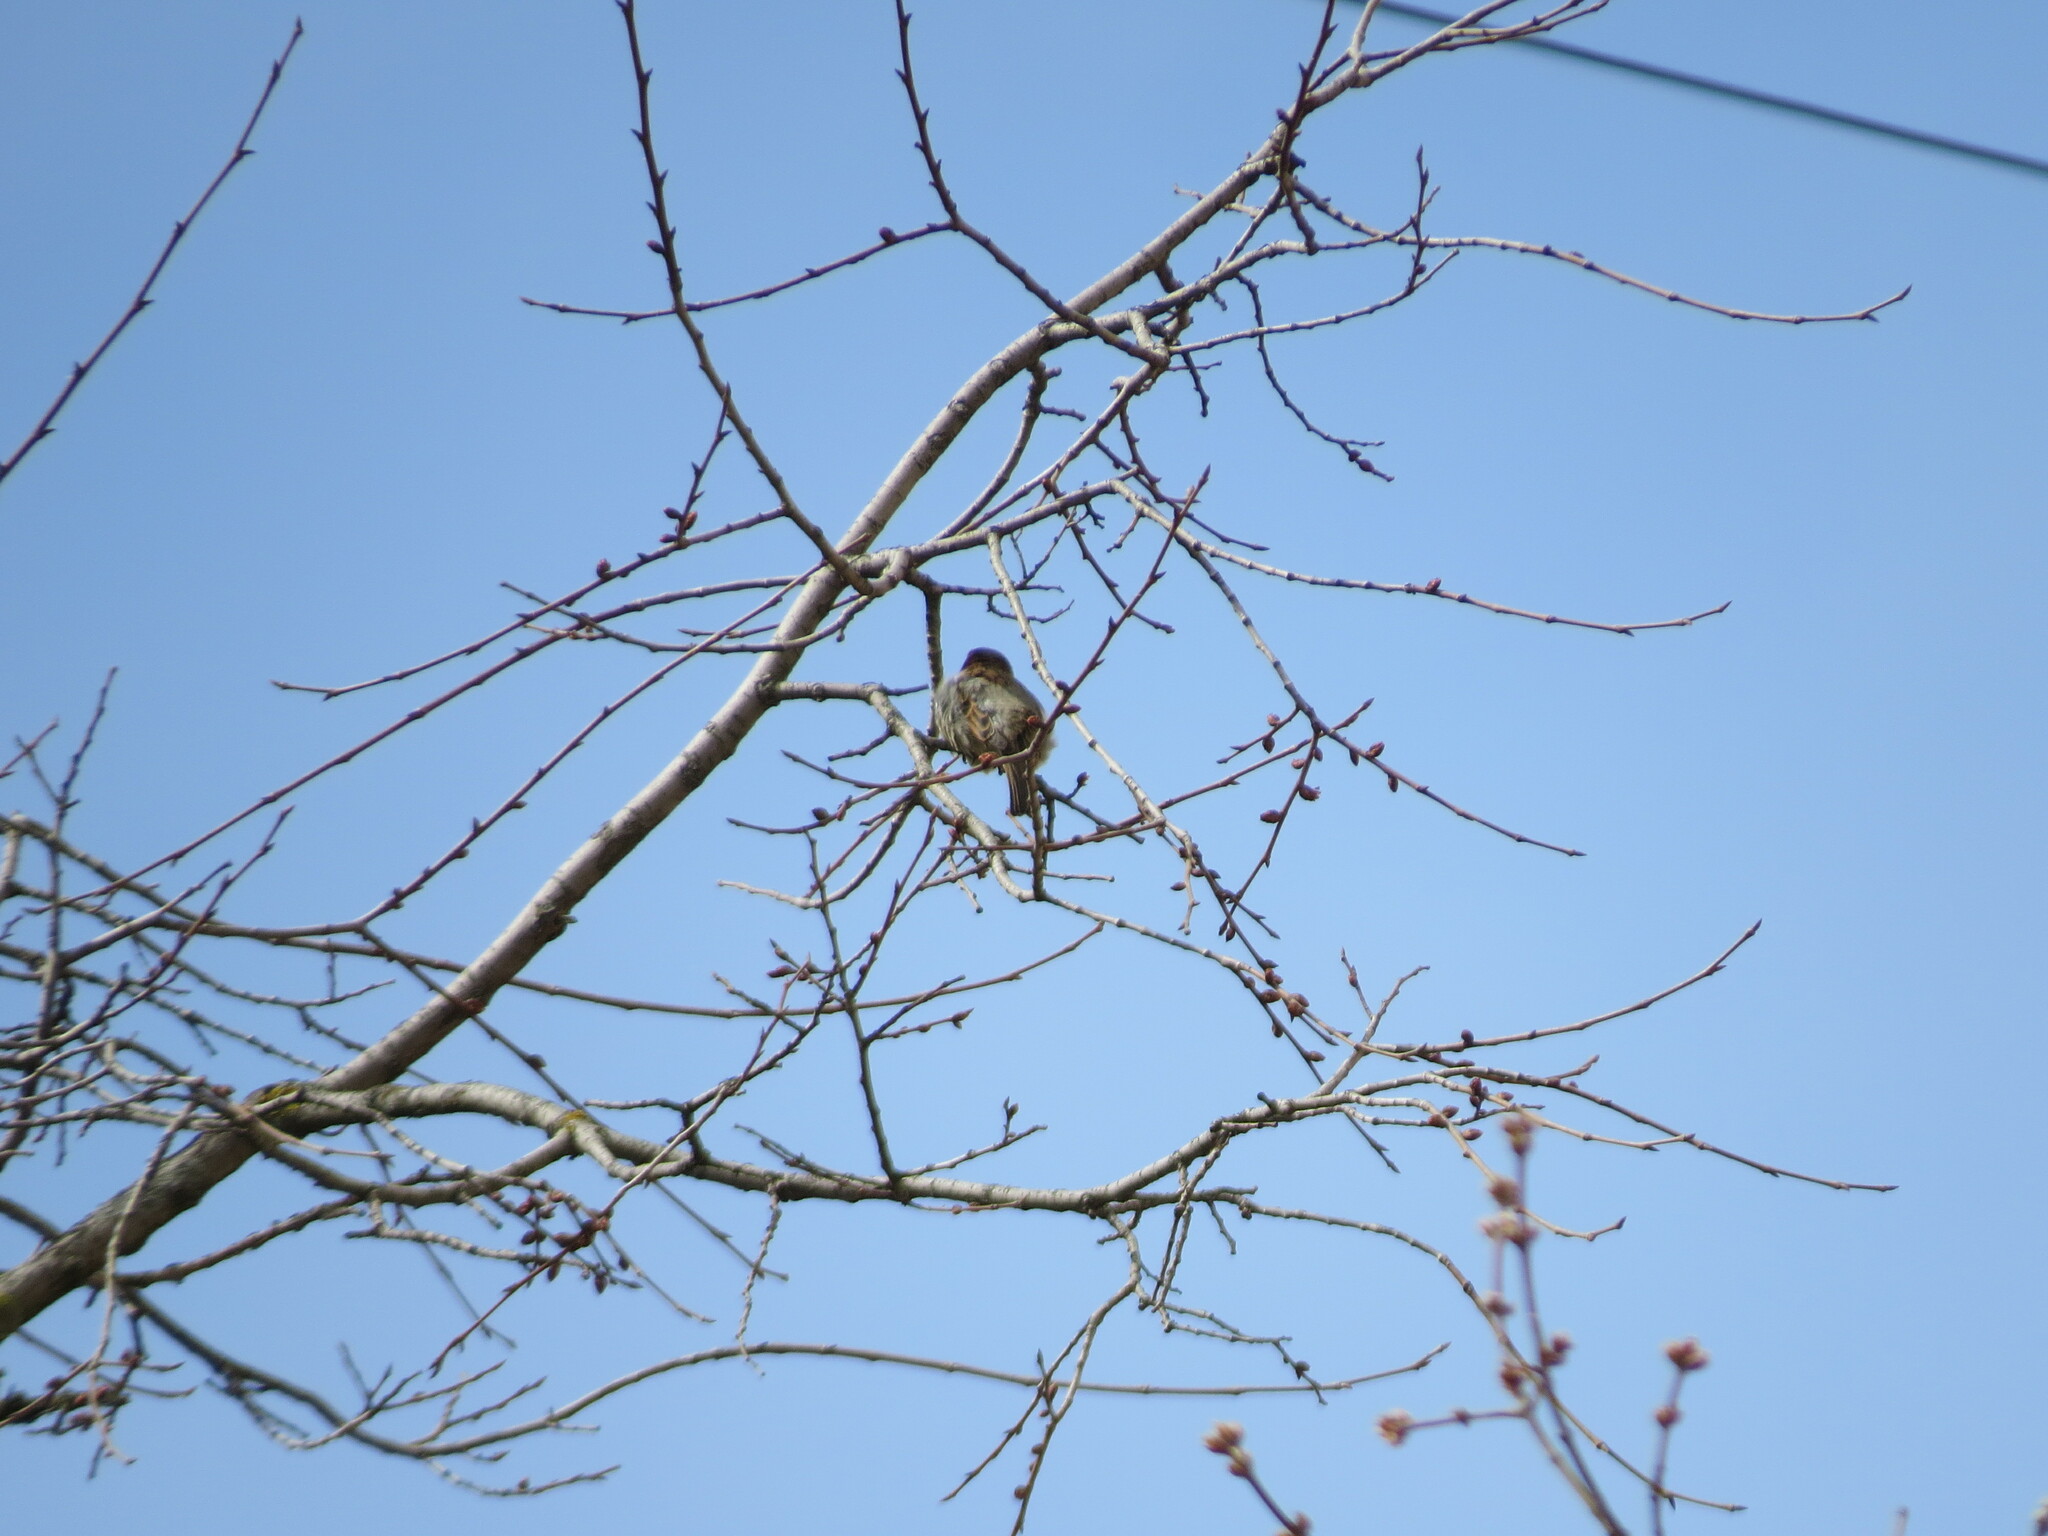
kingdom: Animalia
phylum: Chordata
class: Aves
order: Passeriformes
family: Passeridae
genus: Passer
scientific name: Passer domesticus
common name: House sparrow
